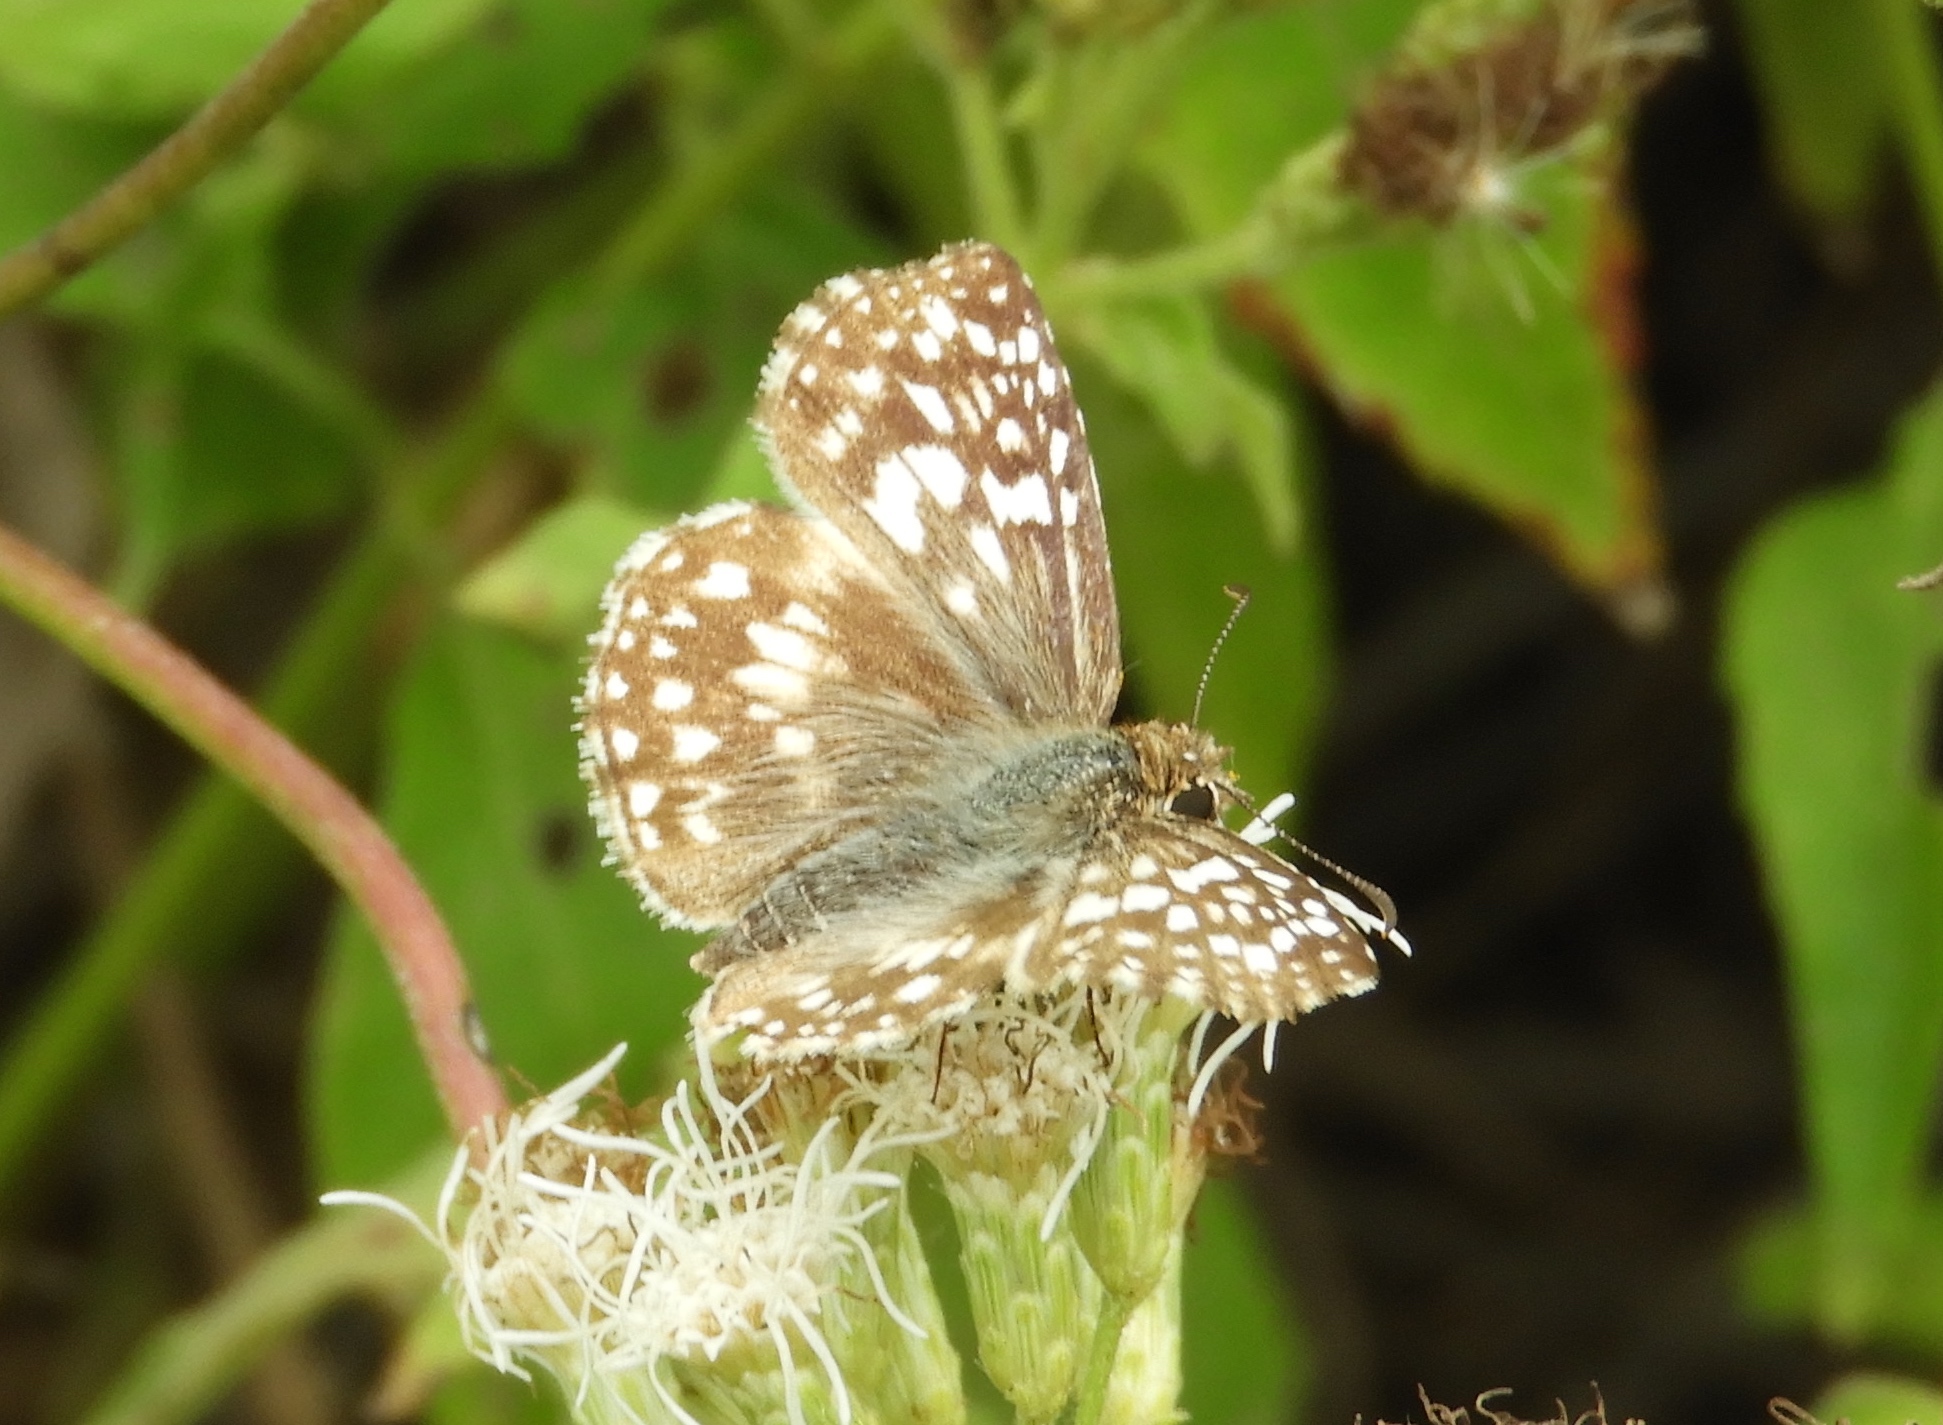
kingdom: Animalia
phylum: Arthropoda
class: Insecta
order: Lepidoptera
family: Hesperiidae
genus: Pyrgus
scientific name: Pyrgus oileus
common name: Tropical checkered-skipper
